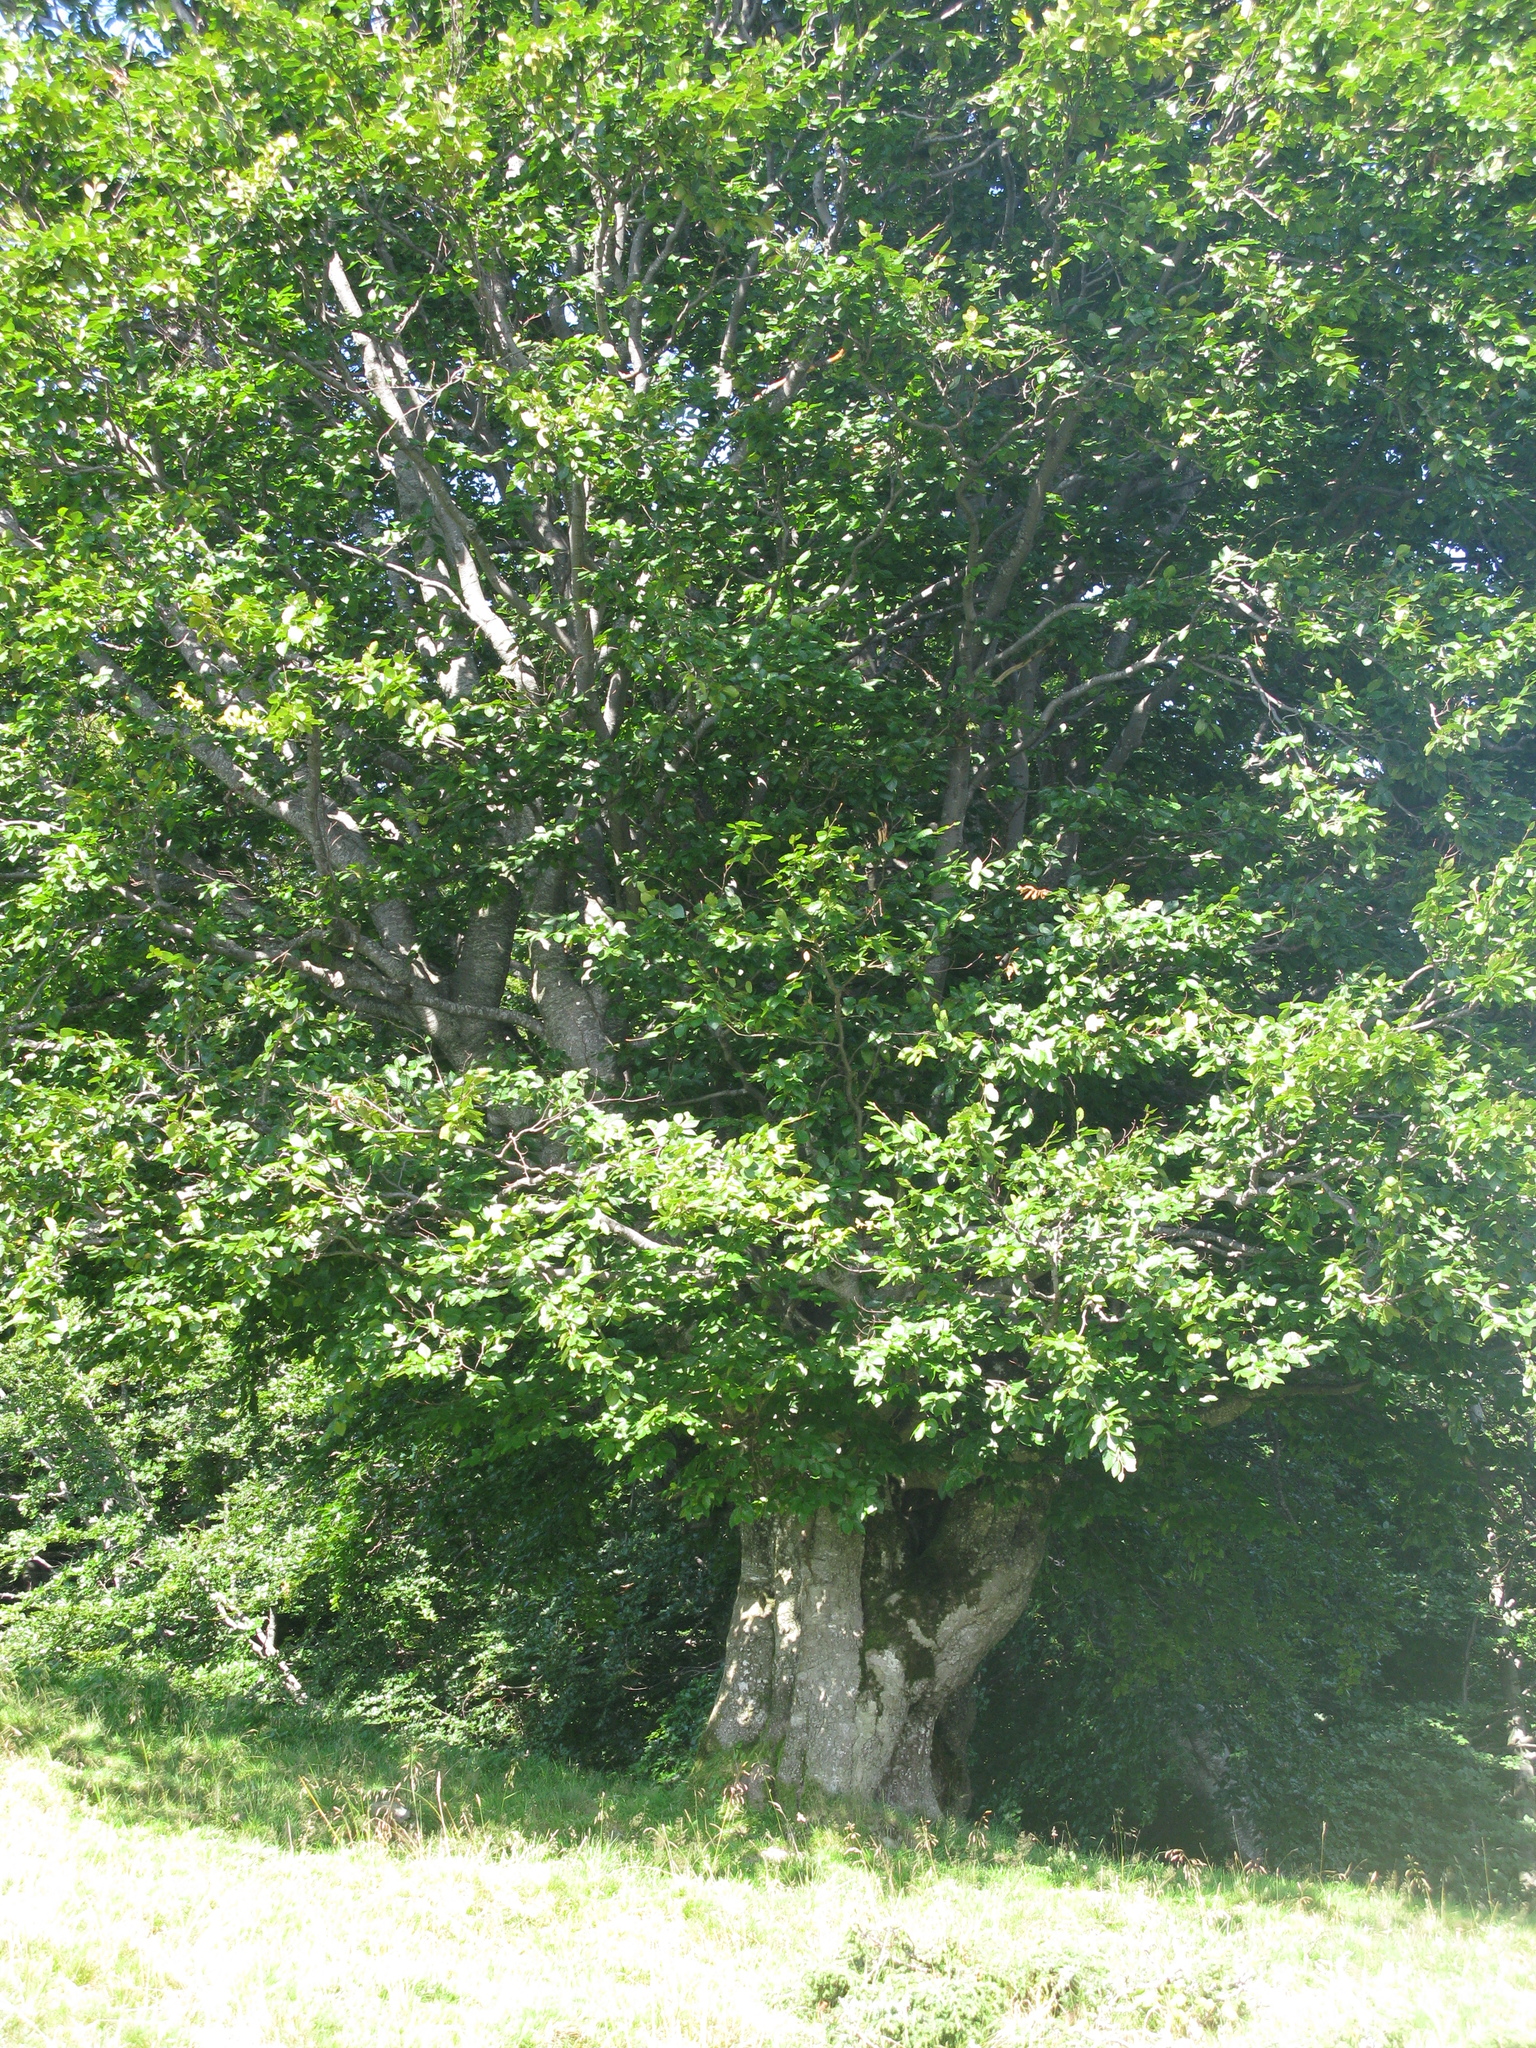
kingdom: Plantae
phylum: Tracheophyta
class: Magnoliopsida
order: Fagales
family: Fagaceae
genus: Fagus
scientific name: Fagus sylvatica
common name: Beech
